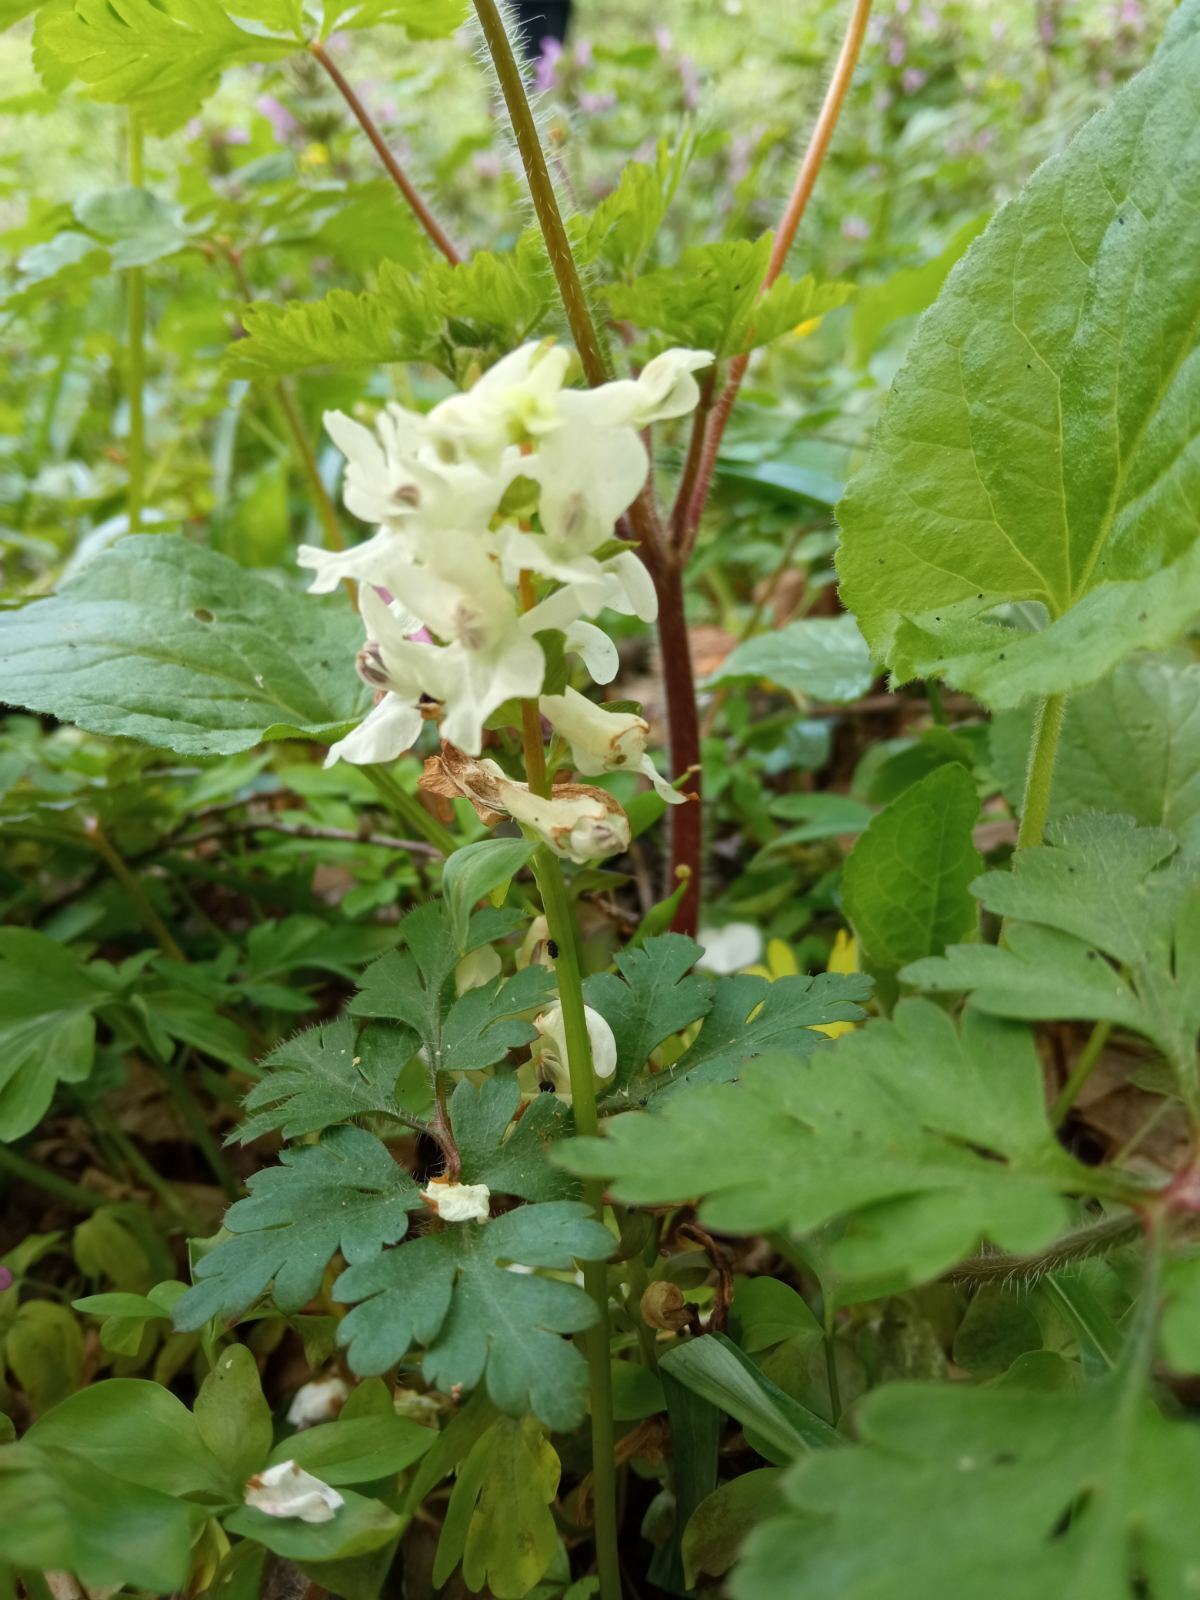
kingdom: Plantae
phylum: Tracheophyta
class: Magnoliopsida
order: Ranunculales
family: Papaveraceae
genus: Corydalis
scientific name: Corydalis cava
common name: Hollowroot
